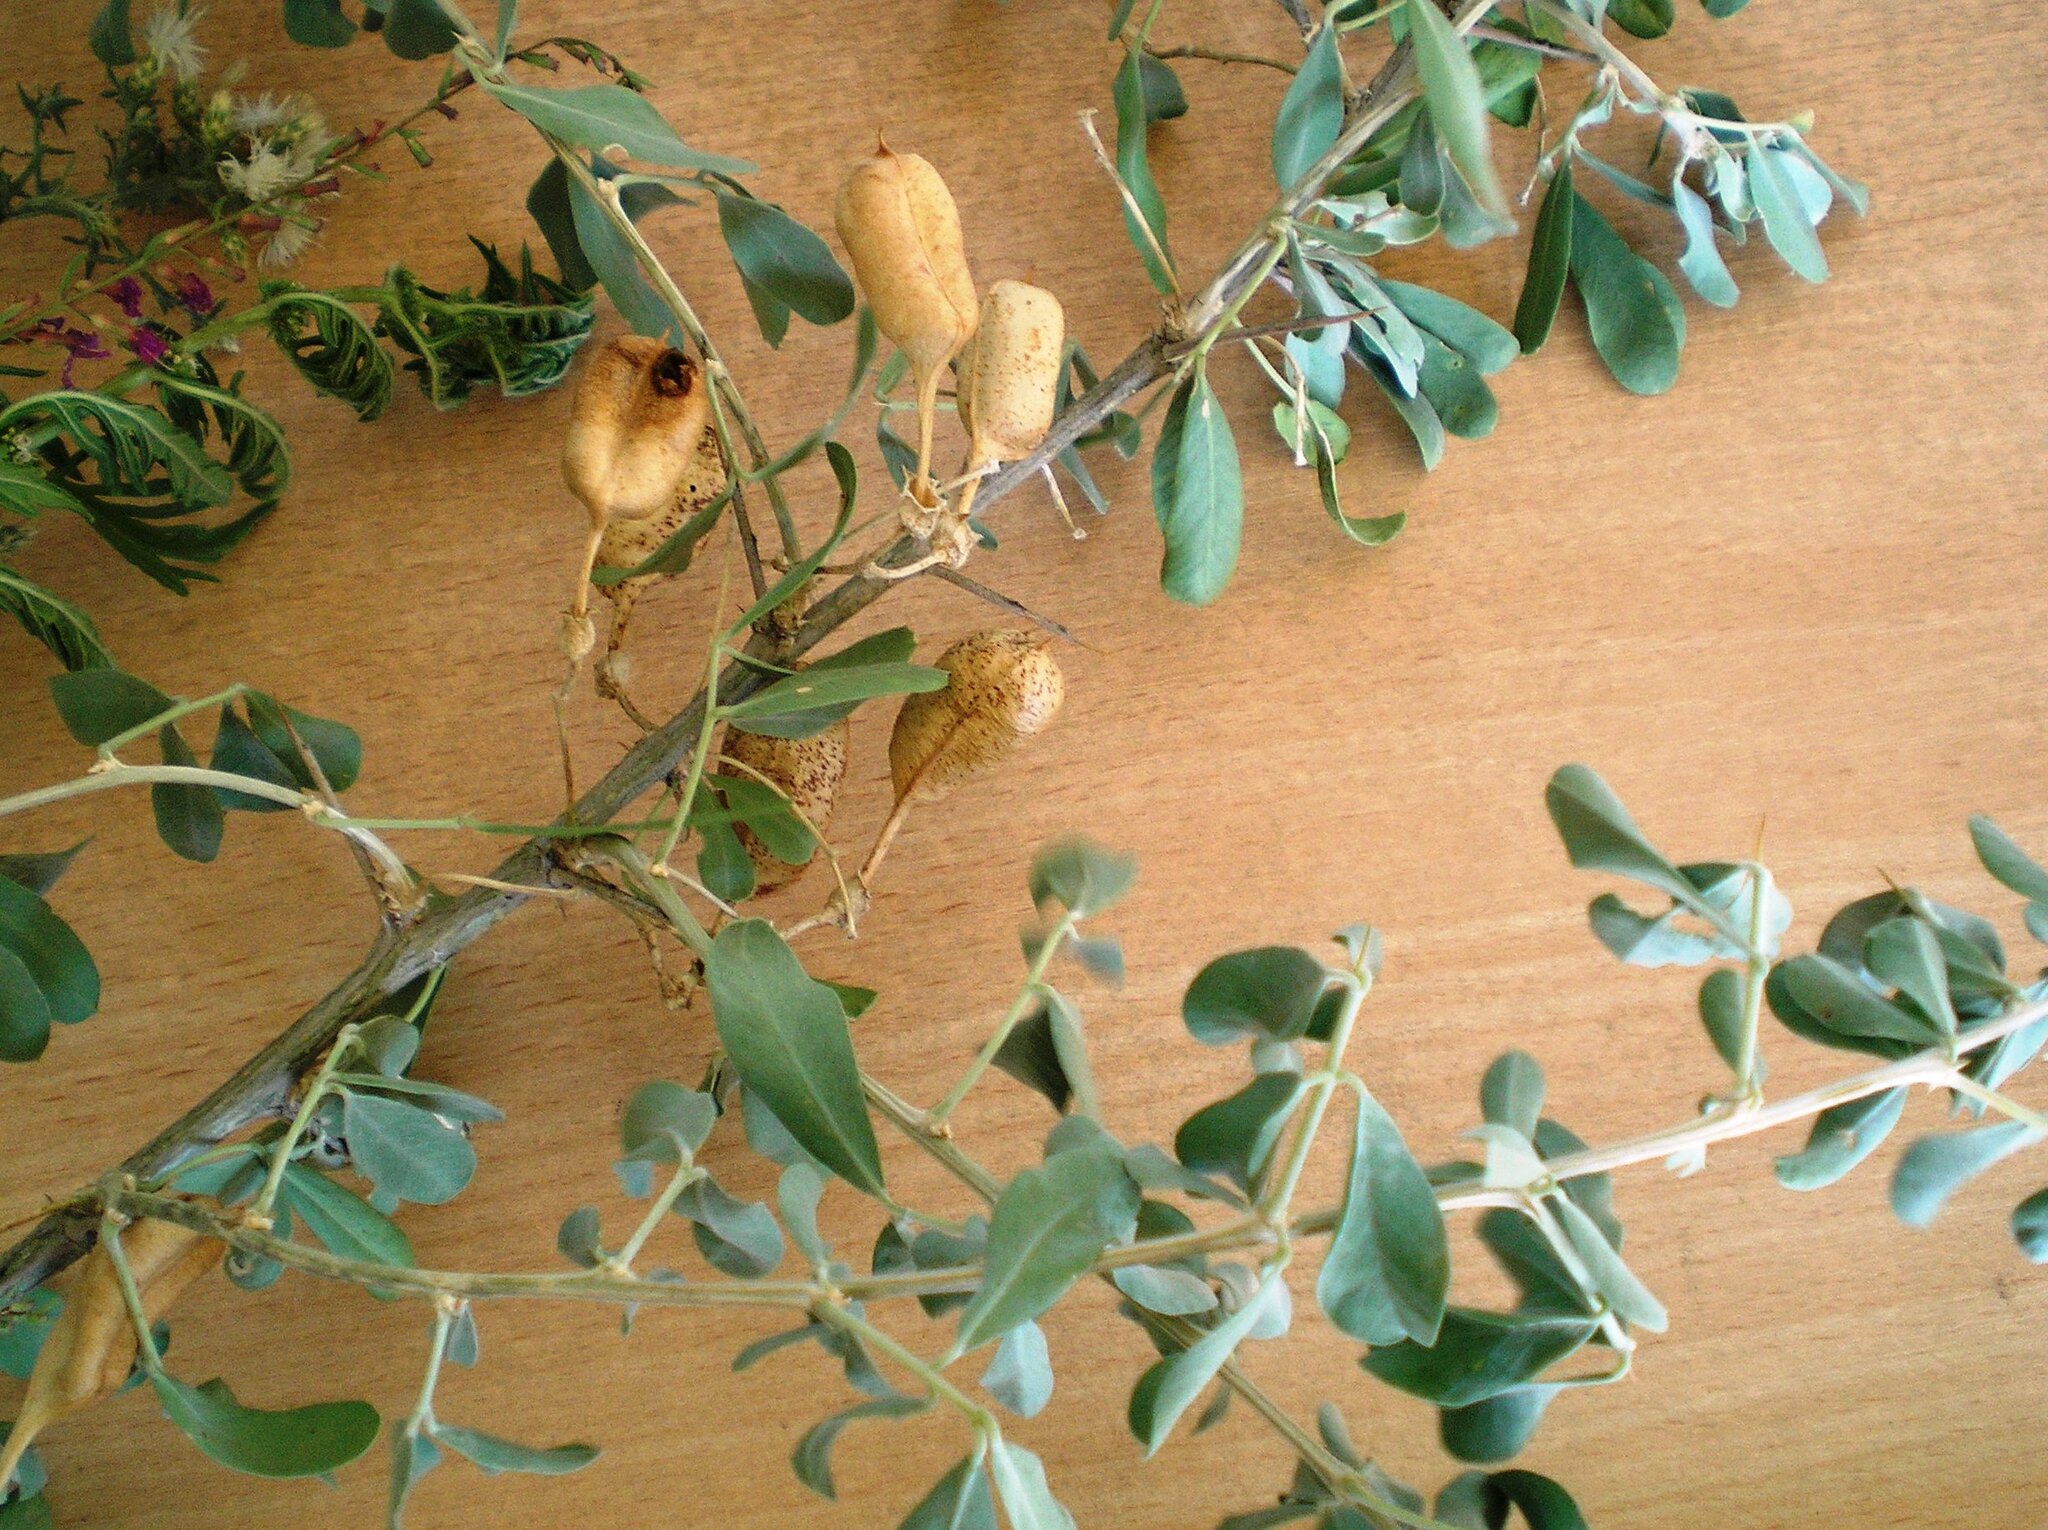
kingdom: Plantae
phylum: Tracheophyta
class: Magnoliopsida
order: Fabales
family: Fabaceae
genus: Caragana
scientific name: Caragana halodendron
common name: Siberian salt-tree
